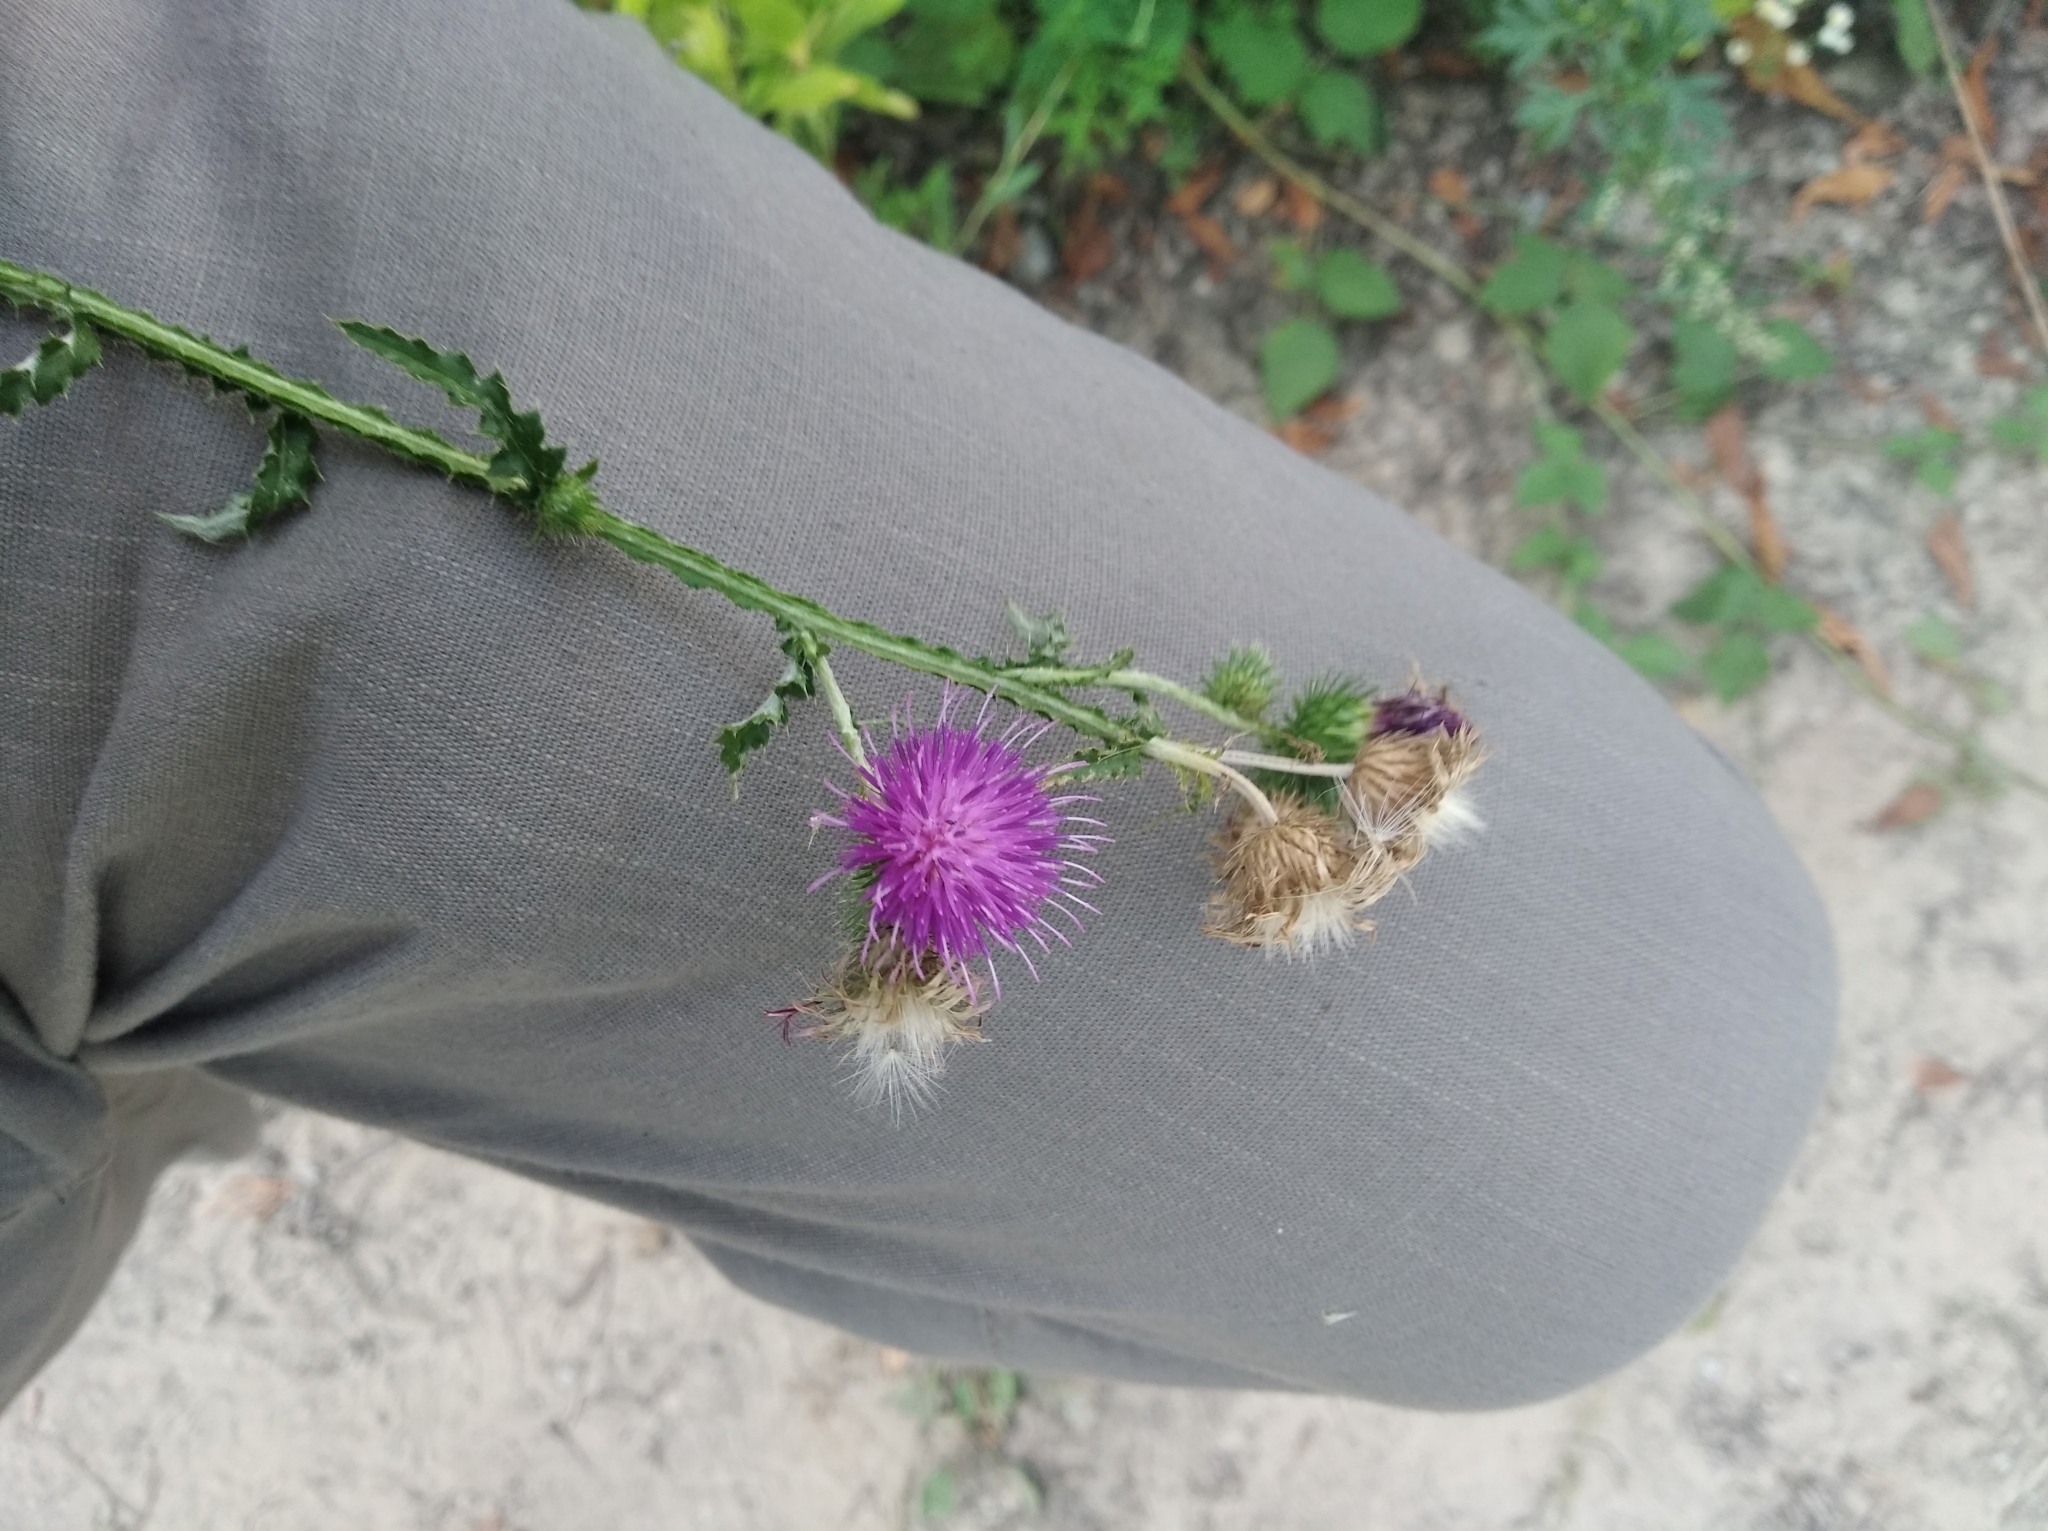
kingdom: Plantae
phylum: Tracheophyta
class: Magnoliopsida
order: Asterales
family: Asteraceae
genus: Carduus
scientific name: Carduus crispus
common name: Welted thistle
